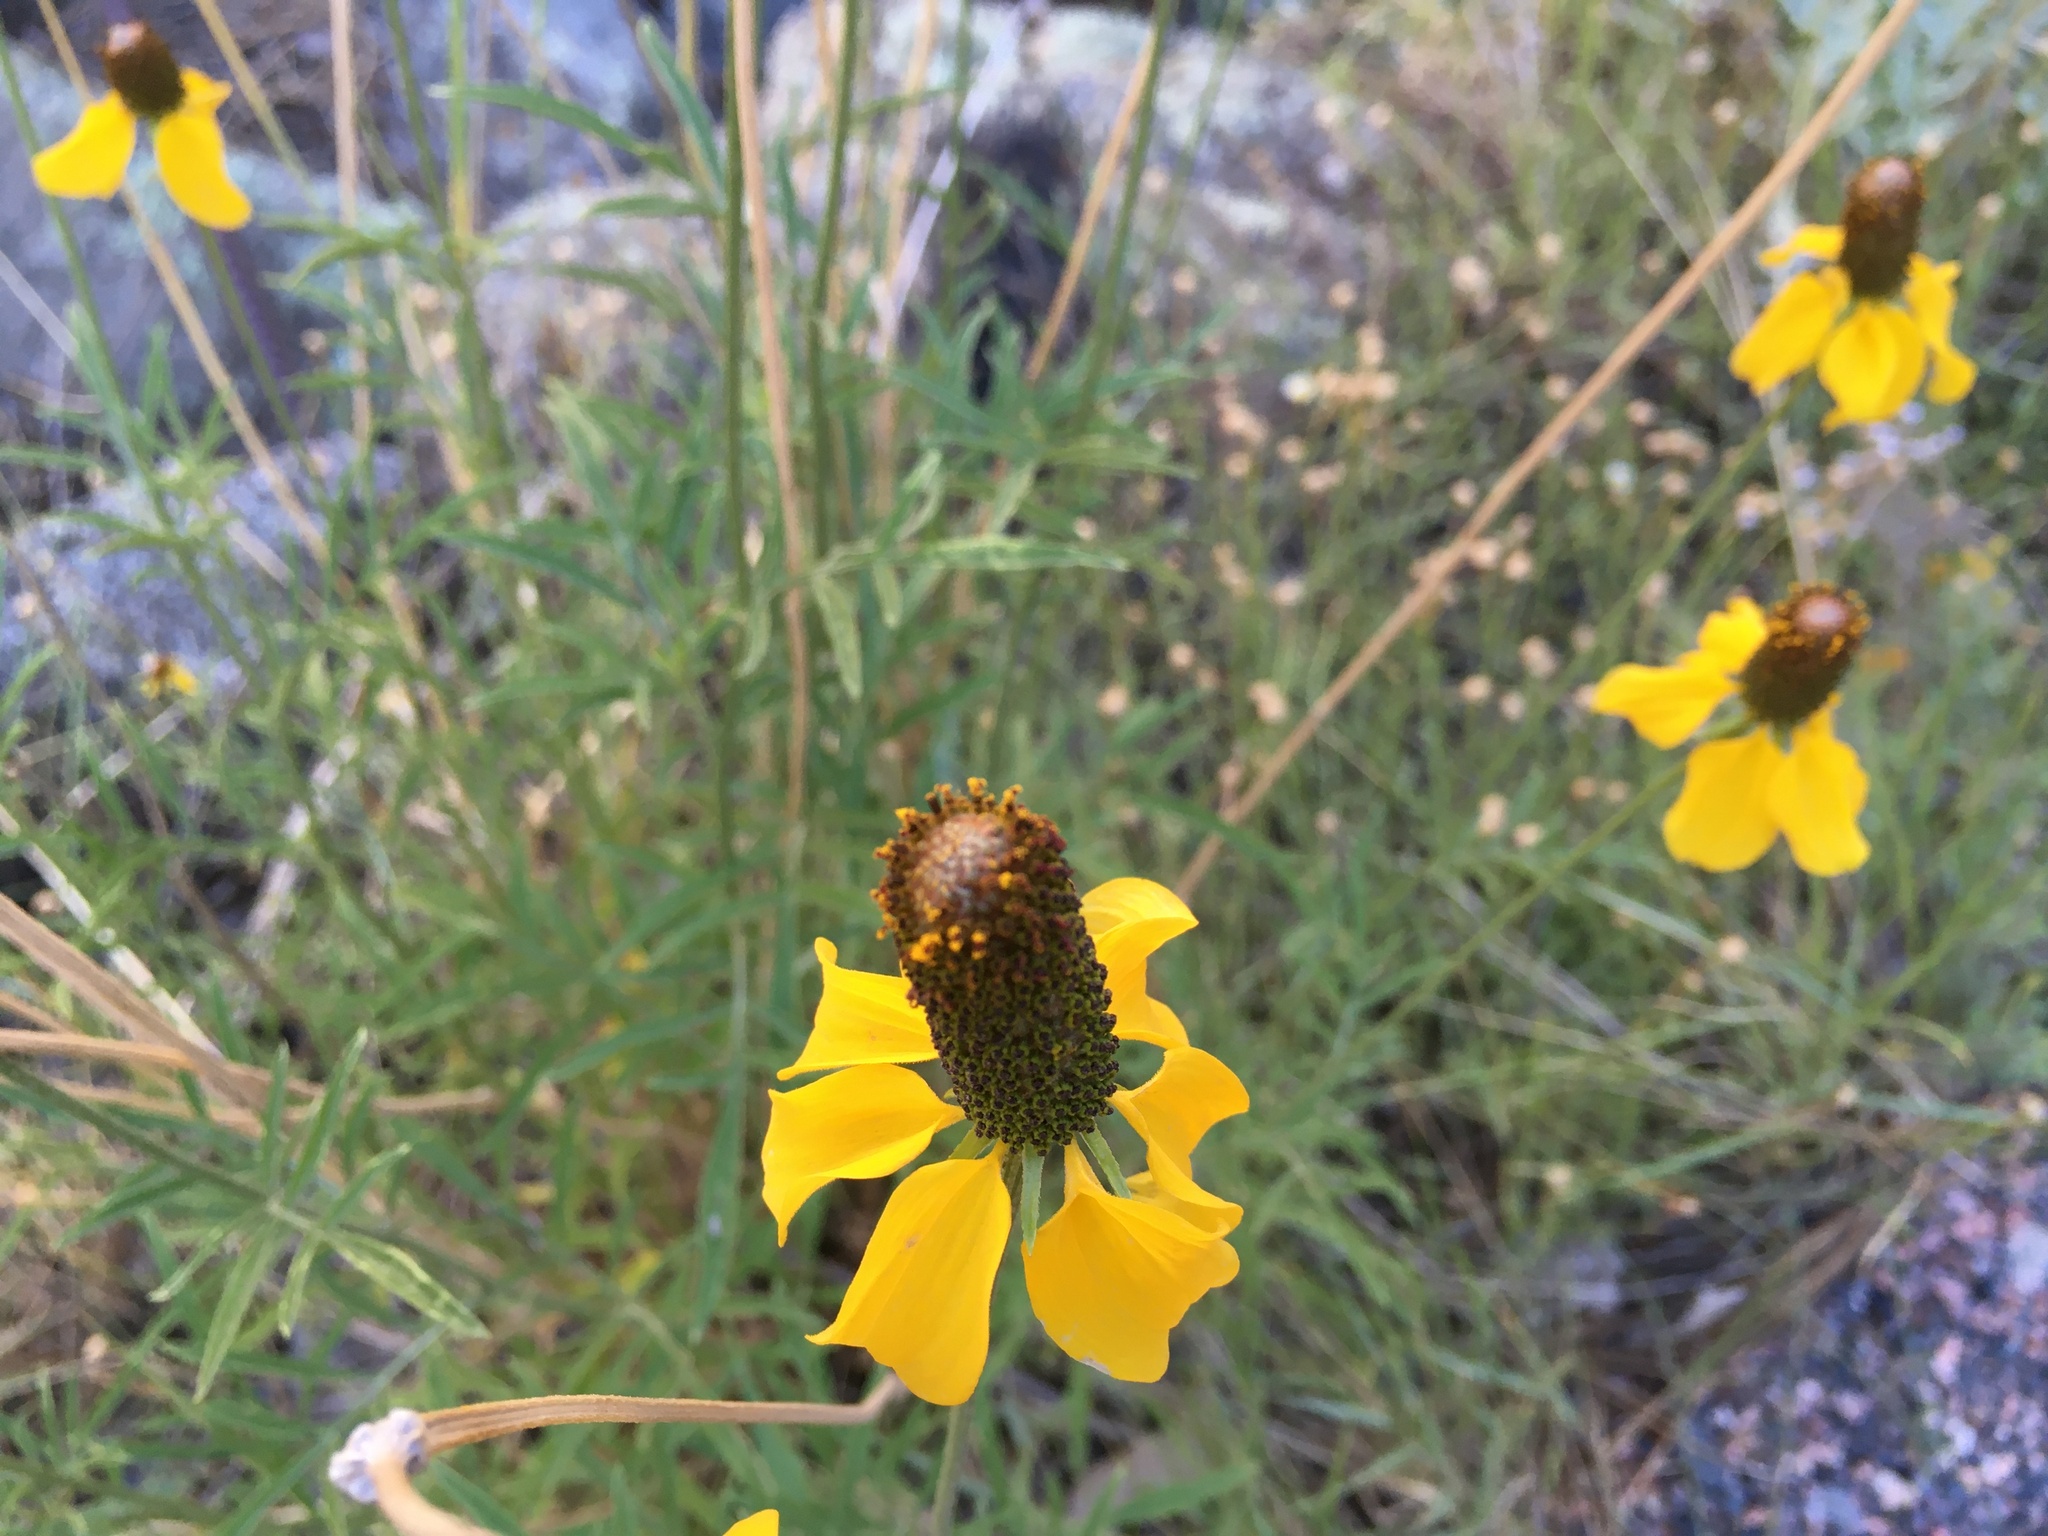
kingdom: Plantae
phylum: Tracheophyta
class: Magnoliopsida
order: Asterales
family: Asteraceae
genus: Ratibida
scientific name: Ratibida columnifera
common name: Prairie coneflower
